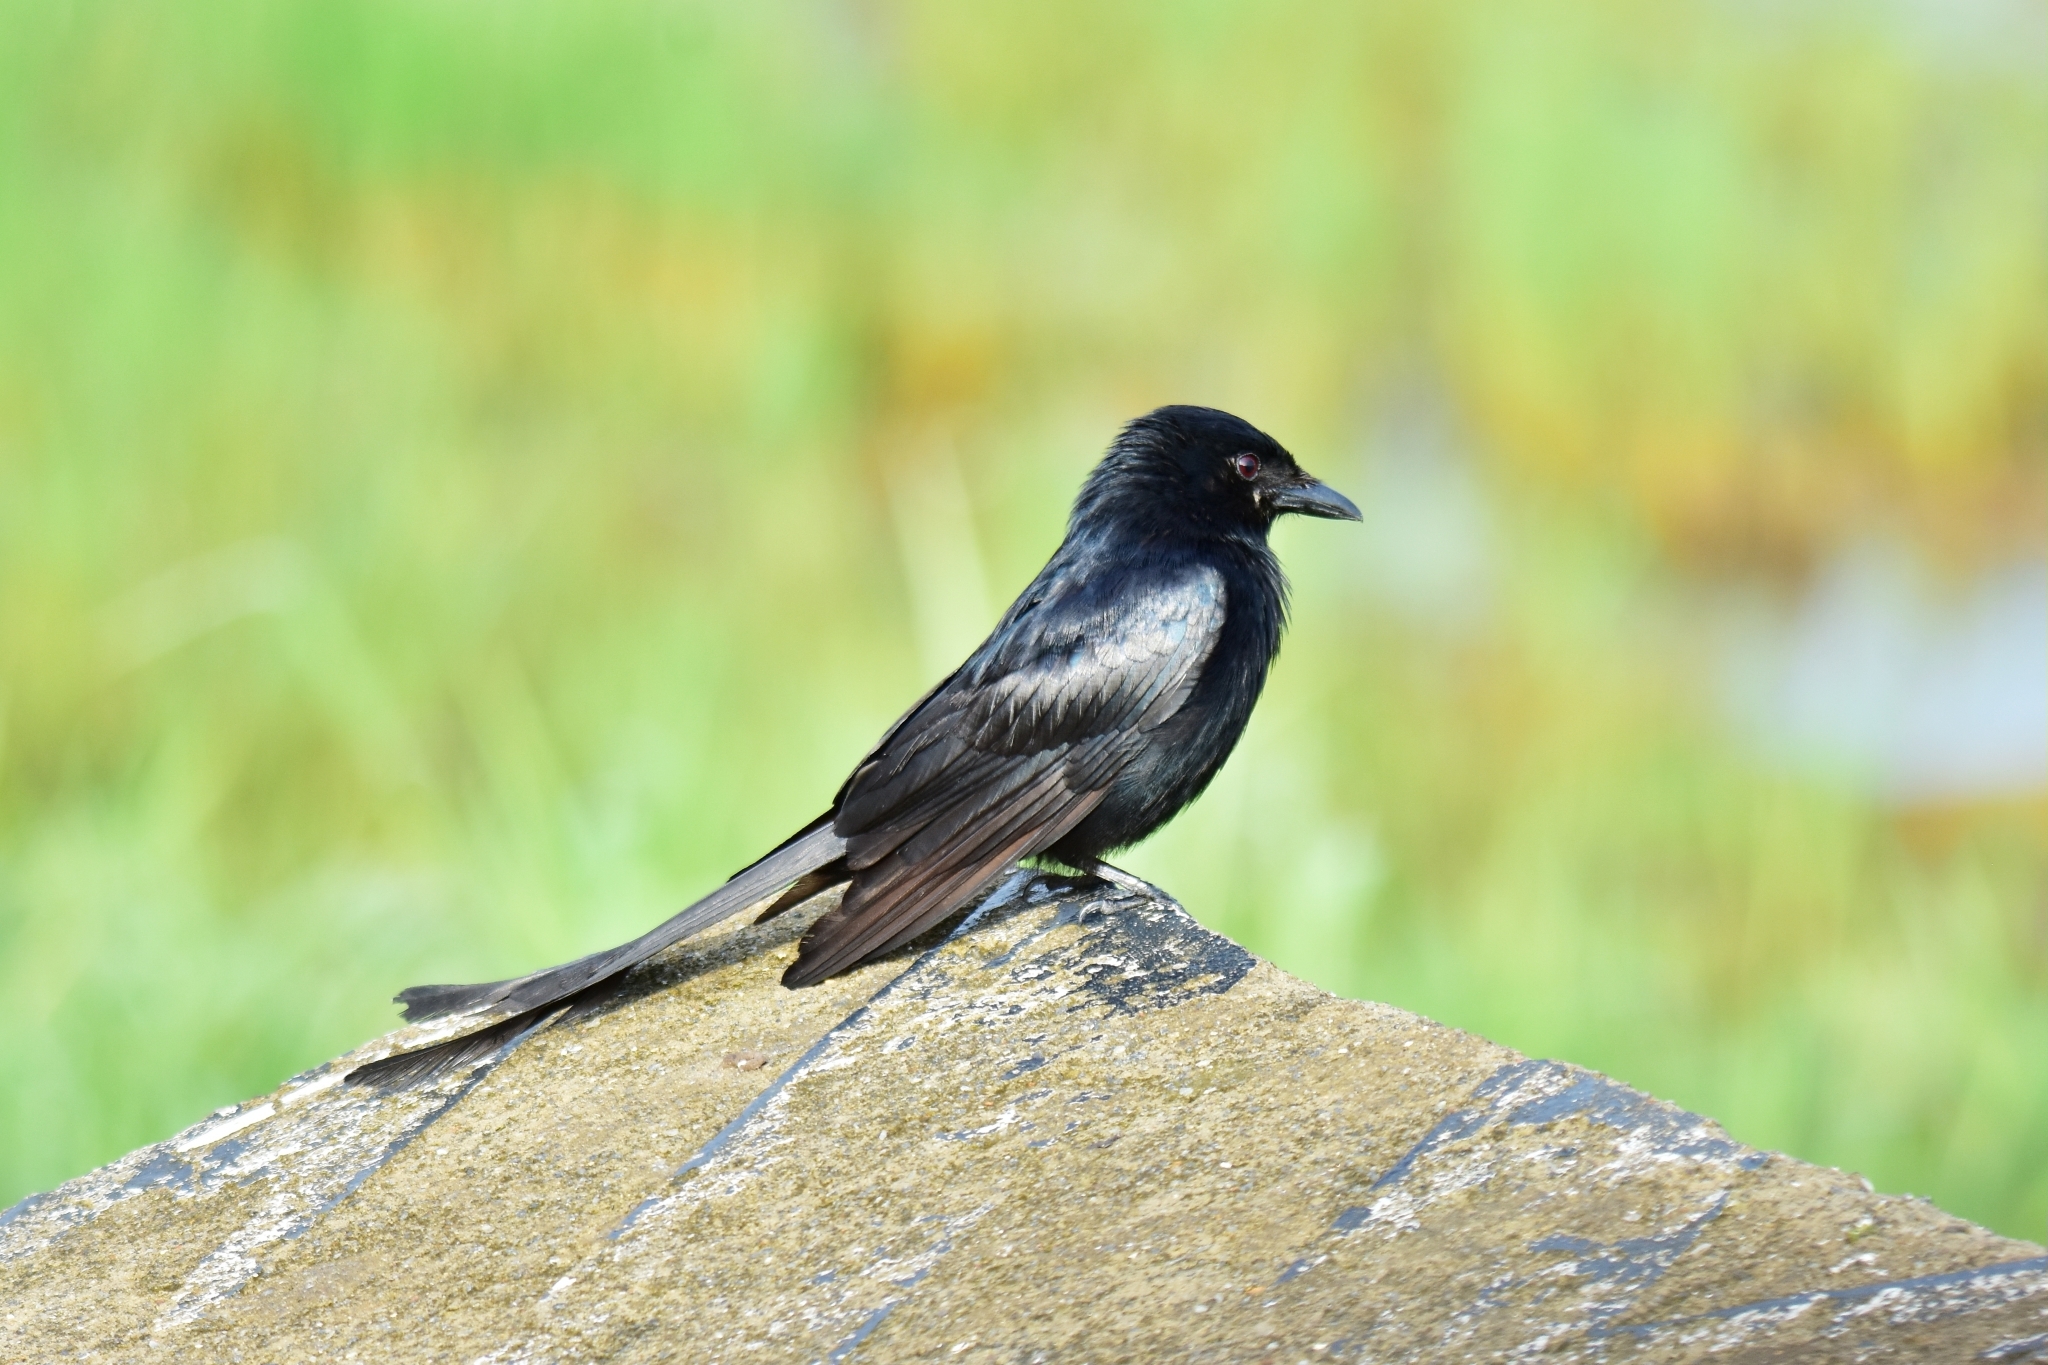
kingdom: Animalia
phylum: Chordata
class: Aves
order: Passeriformes
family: Dicruridae
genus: Dicrurus
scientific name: Dicrurus macrocercus
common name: Black drongo
